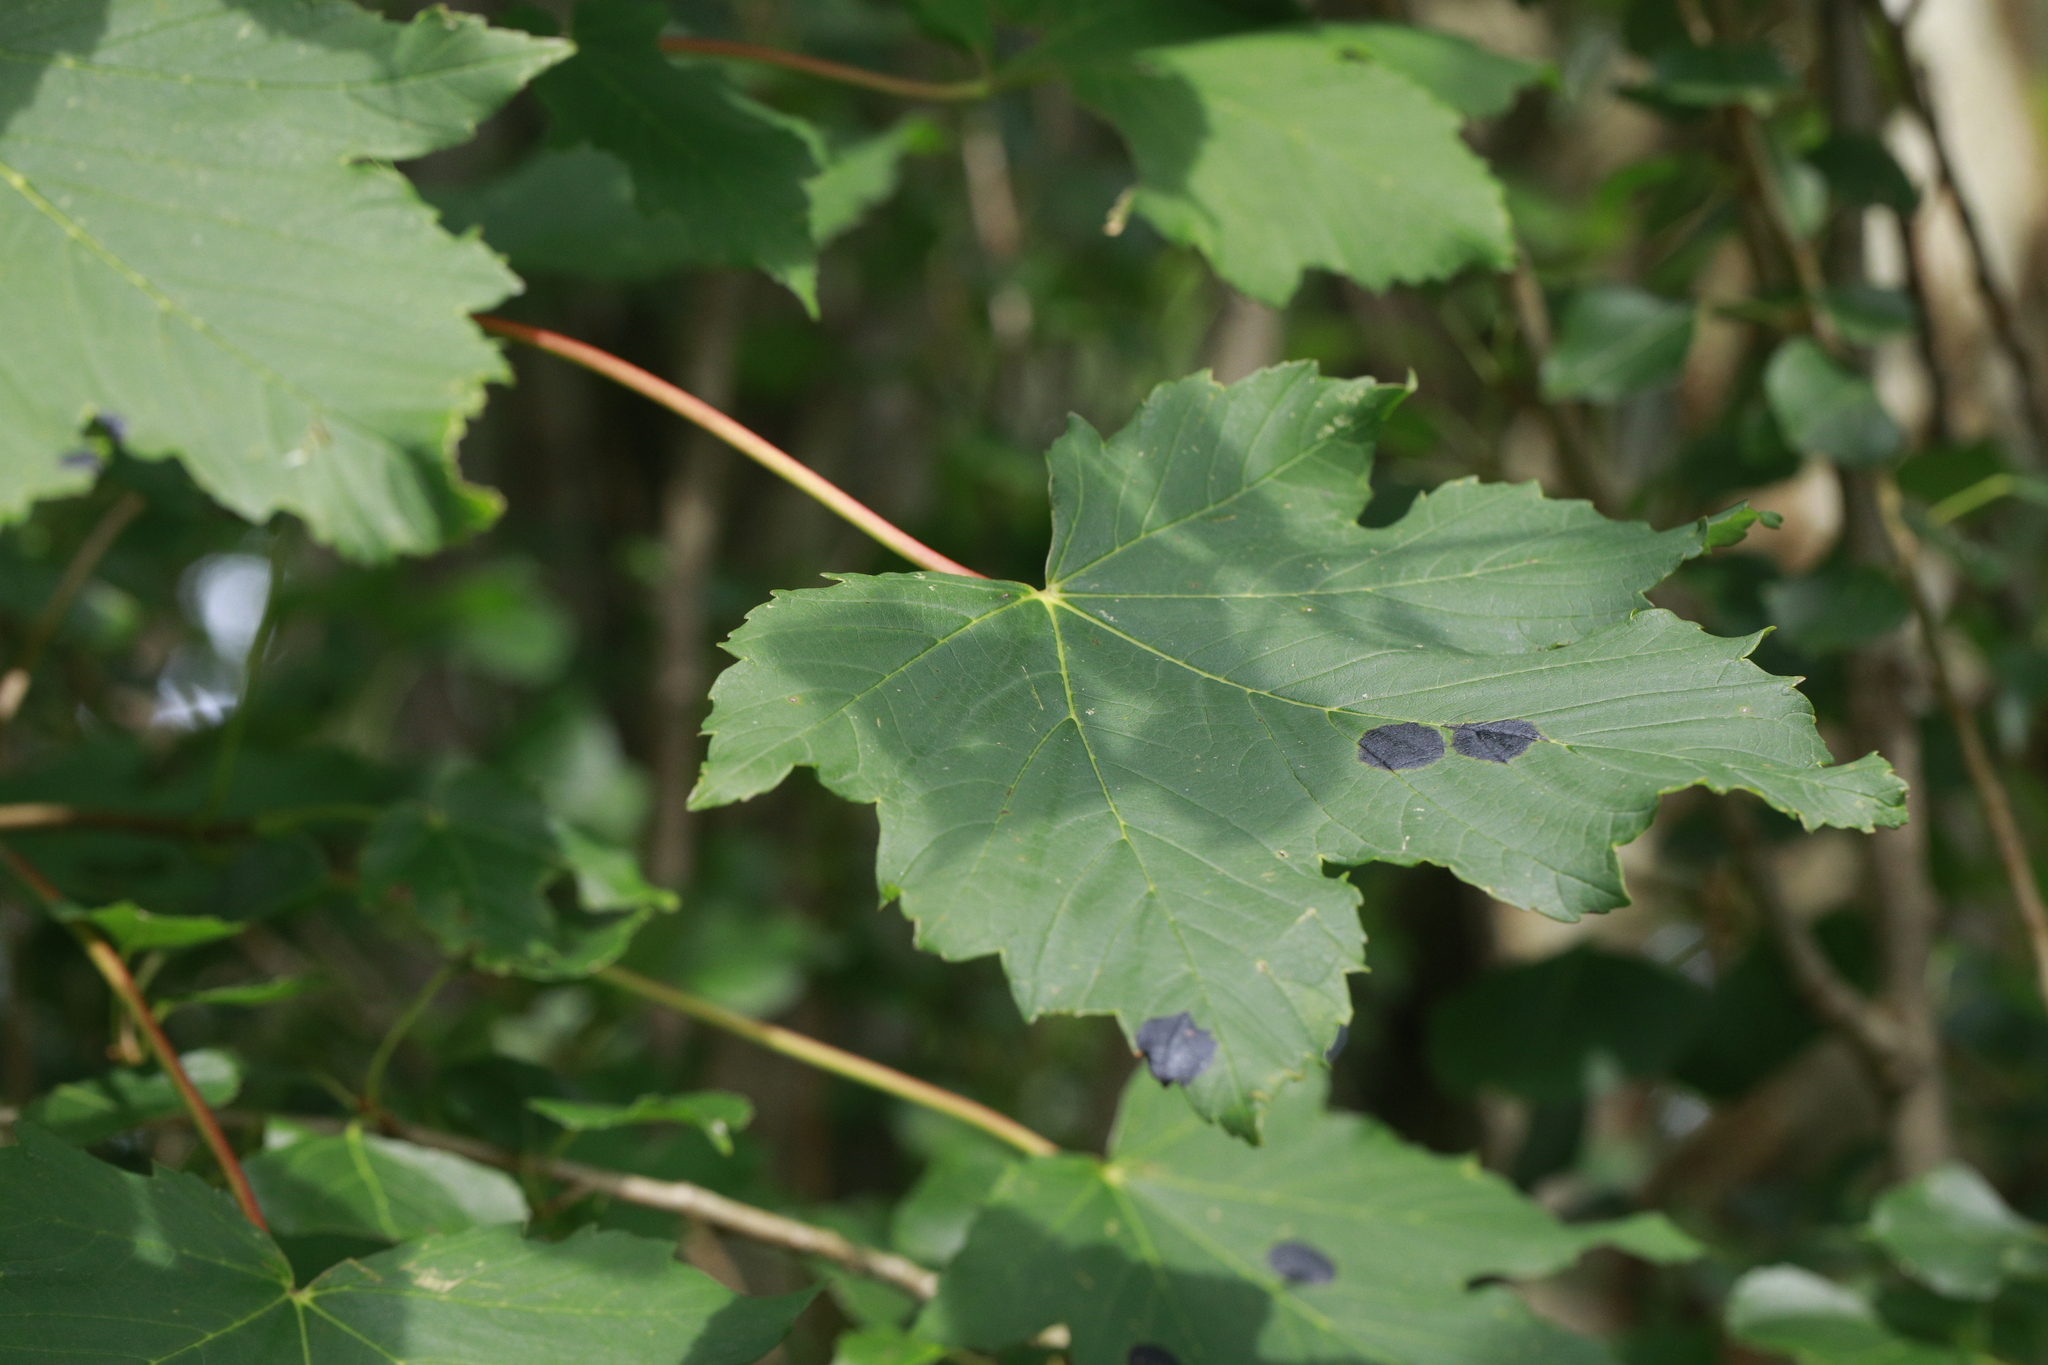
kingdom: Fungi
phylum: Ascomycota
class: Leotiomycetes
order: Rhytismatales
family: Rhytismataceae
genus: Rhytisma
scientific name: Rhytisma acerinum
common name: European tar spot
